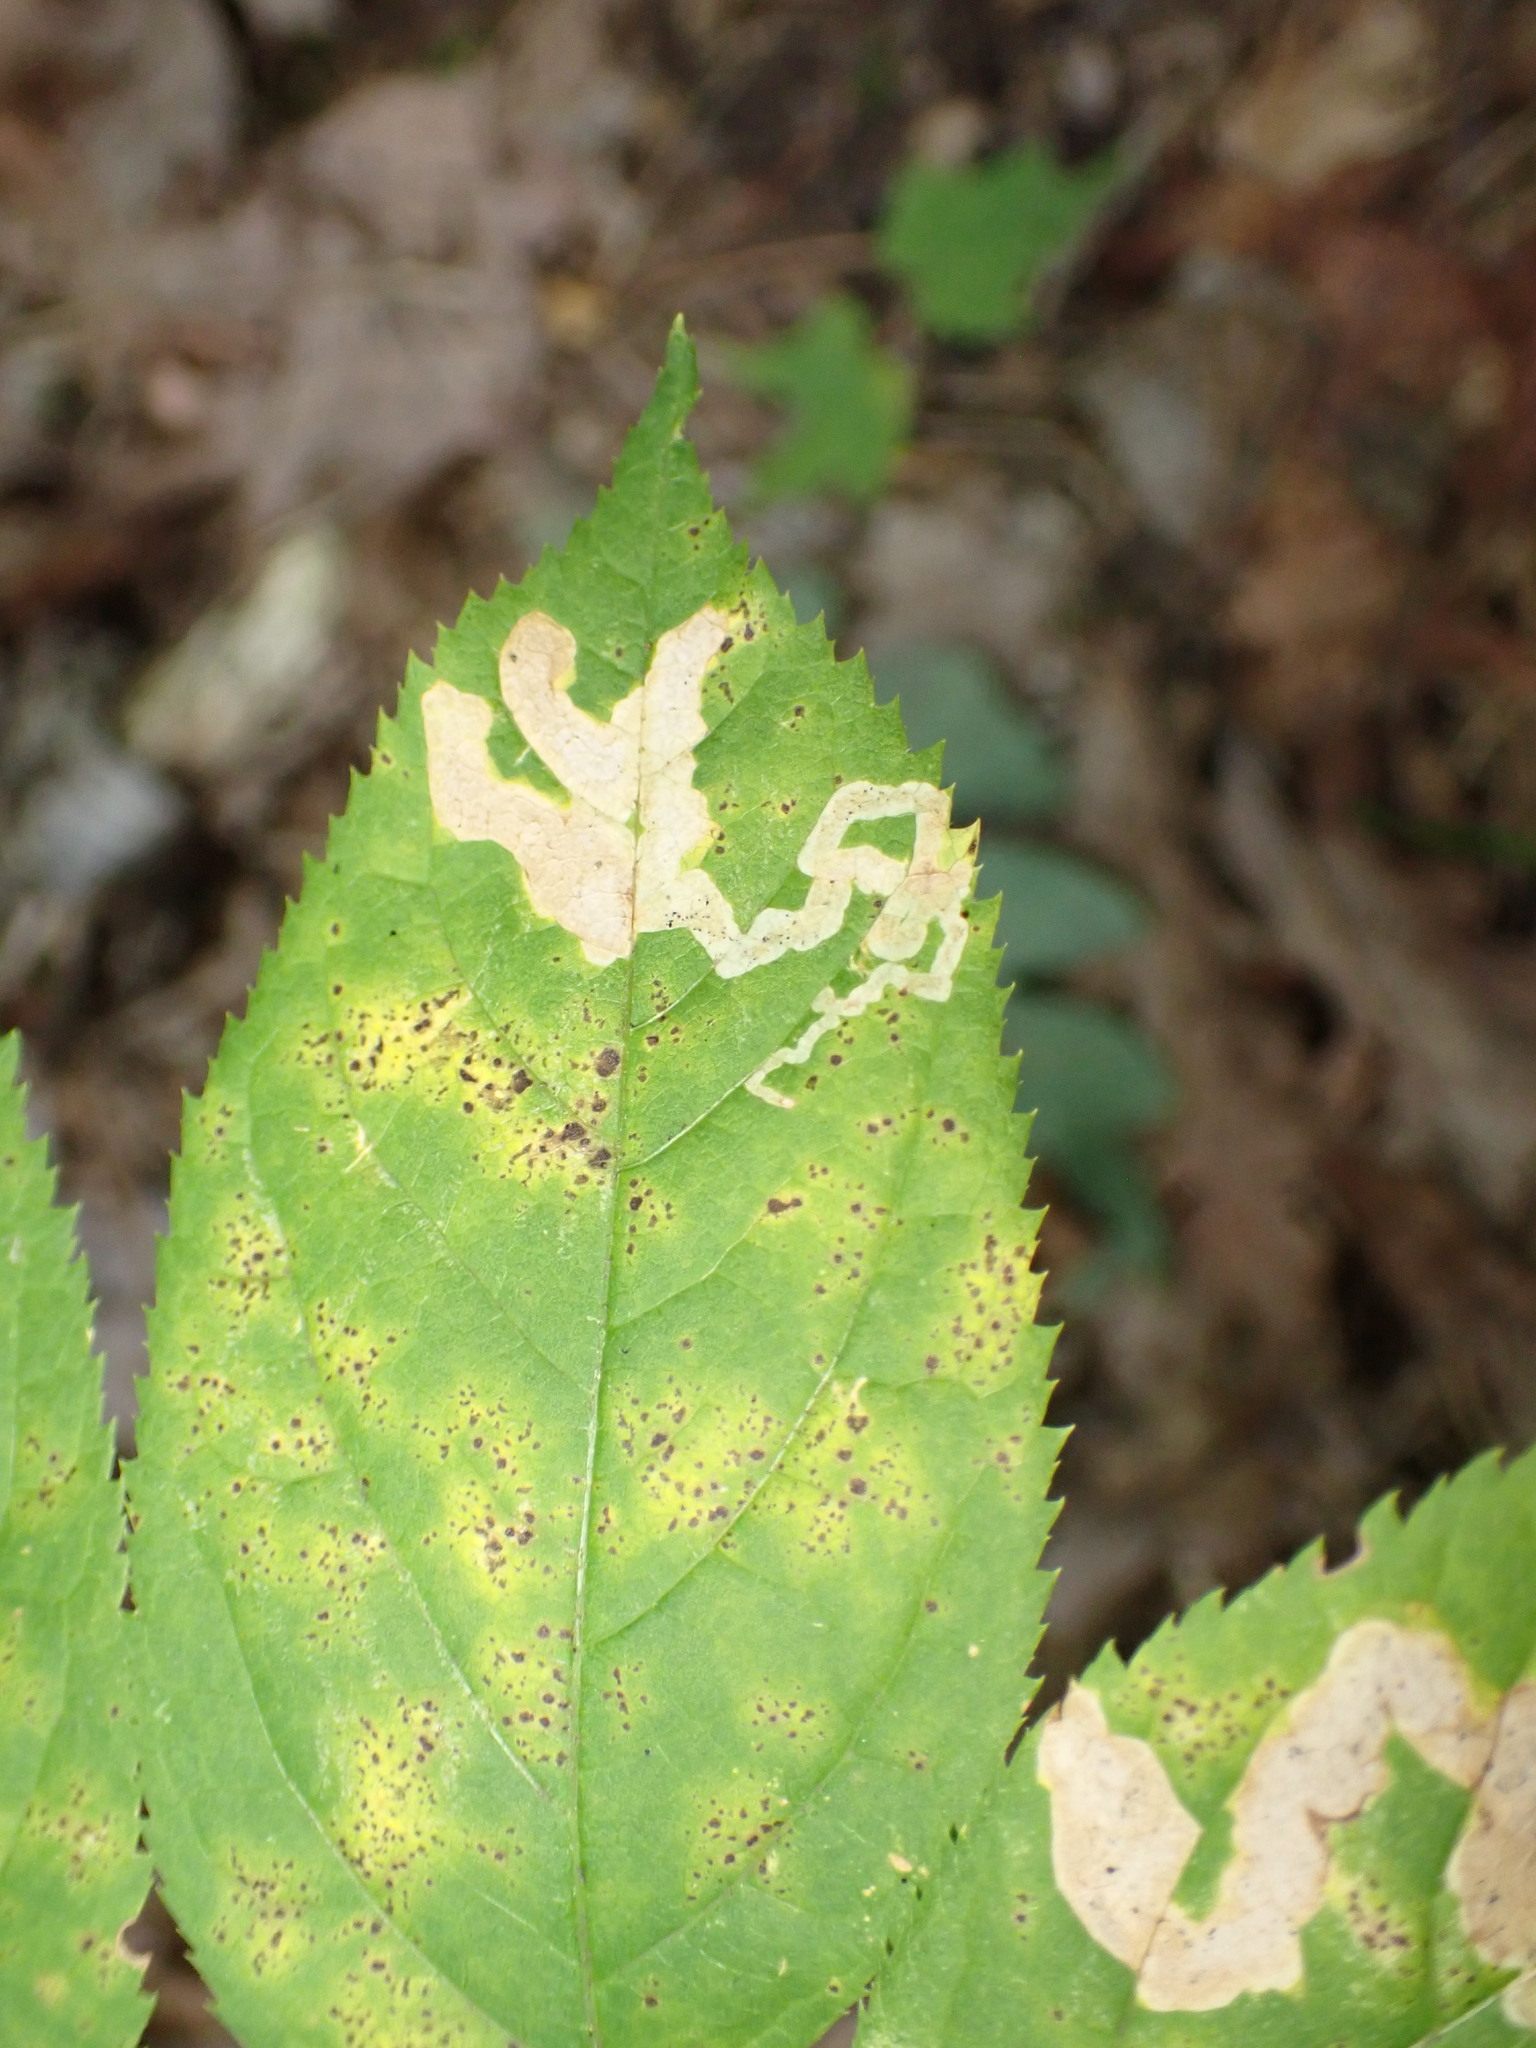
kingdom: Animalia
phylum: Arthropoda
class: Insecta
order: Diptera
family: Agromyzidae
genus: Phytomyza
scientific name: Phytomyza aralivora
